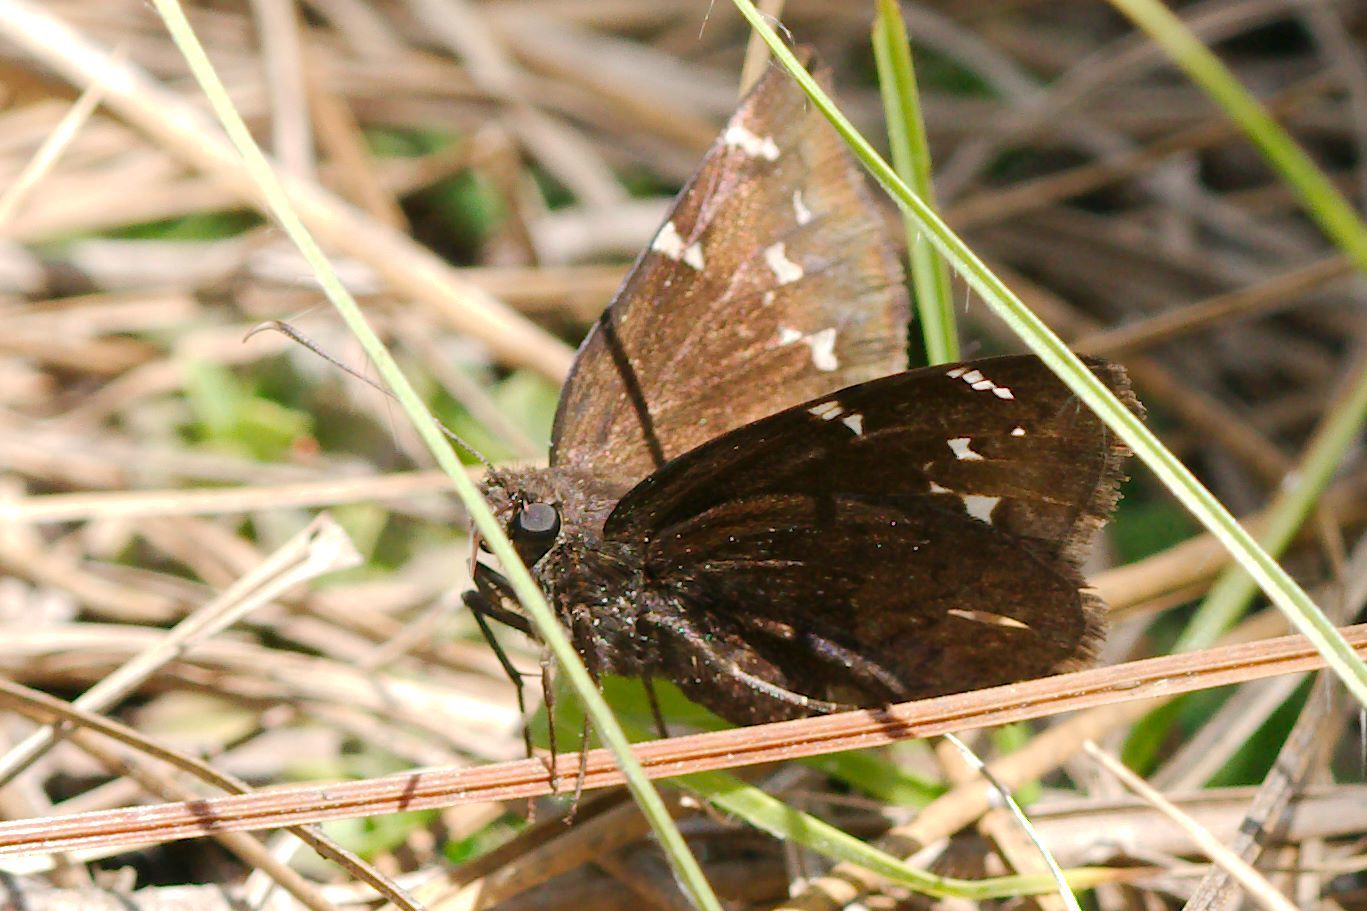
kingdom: Animalia
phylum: Arthropoda
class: Insecta
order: Lepidoptera
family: Hesperiidae
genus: Thorybes
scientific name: Thorybes pylades
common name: Northern cloudywing
